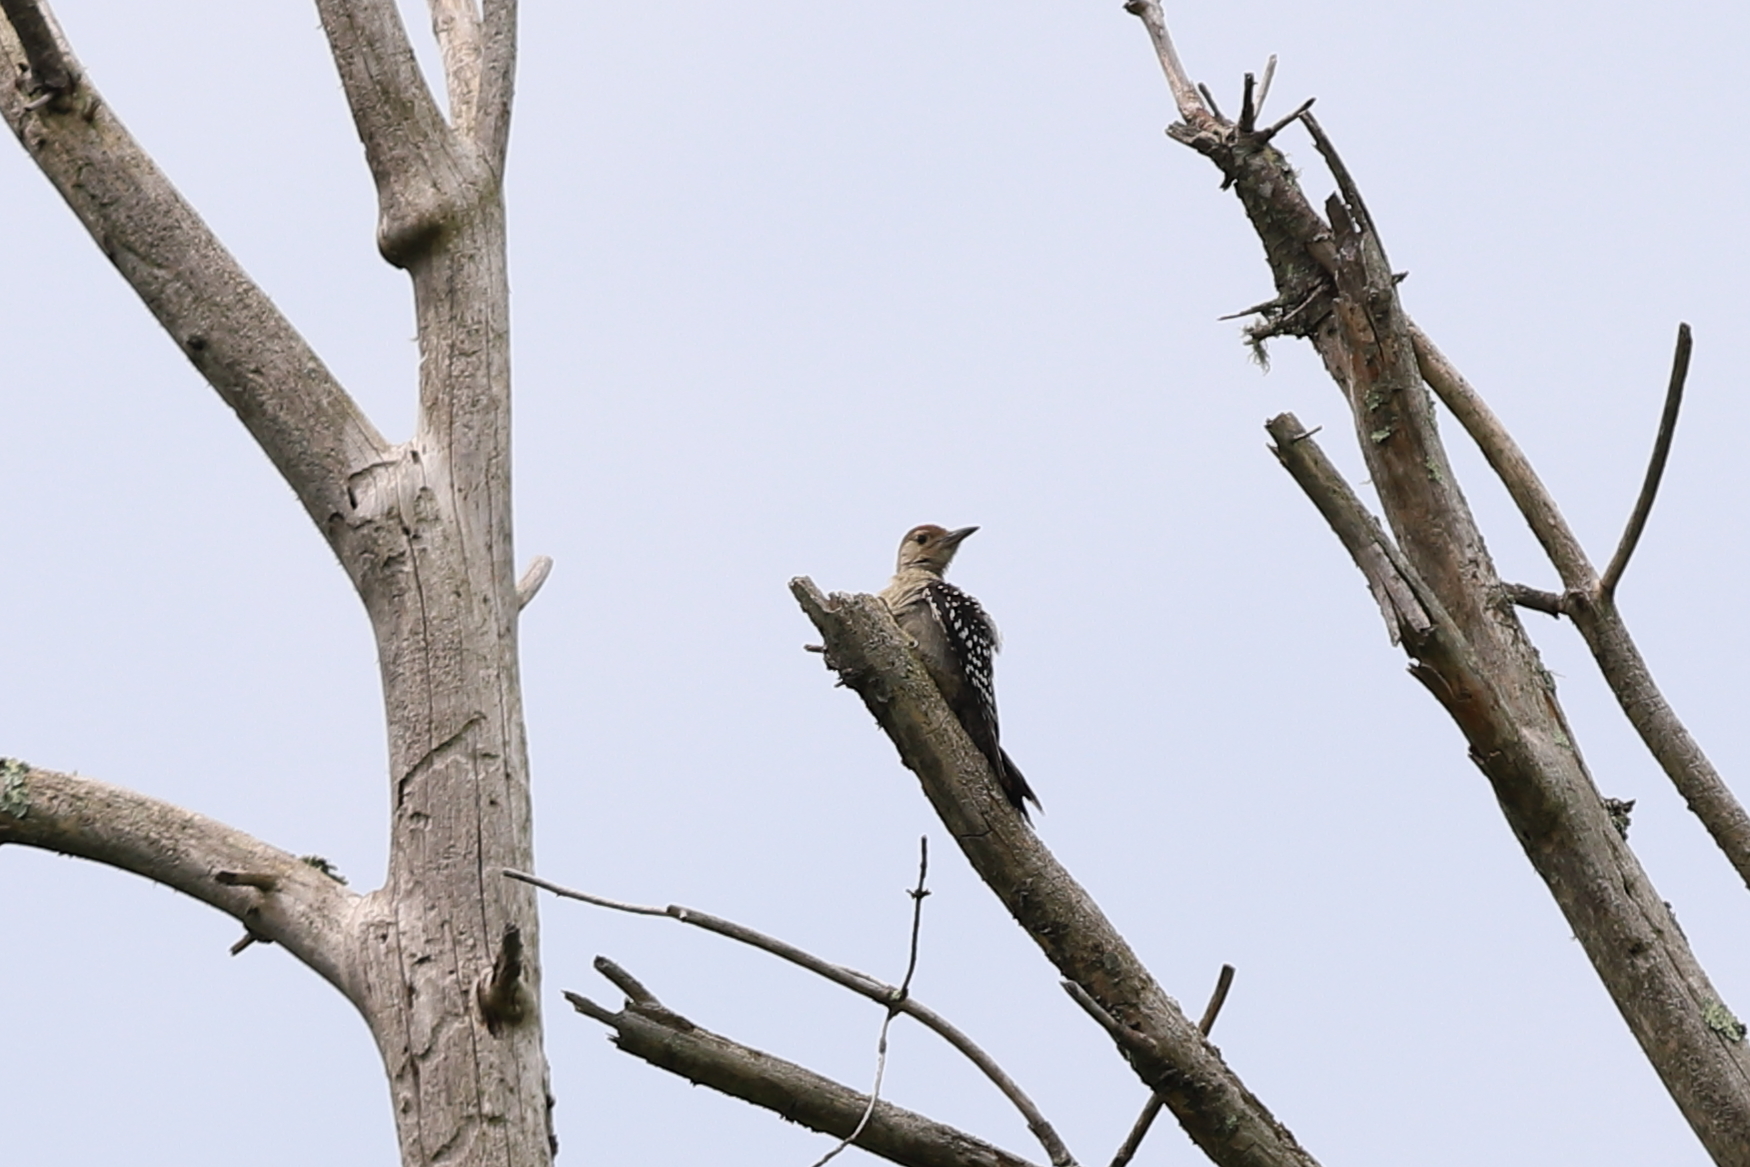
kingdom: Animalia
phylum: Chordata
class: Aves
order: Piciformes
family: Picidae
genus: Melanerpes
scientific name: Melanerpes carolinus
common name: Red-bellied woodpecker
